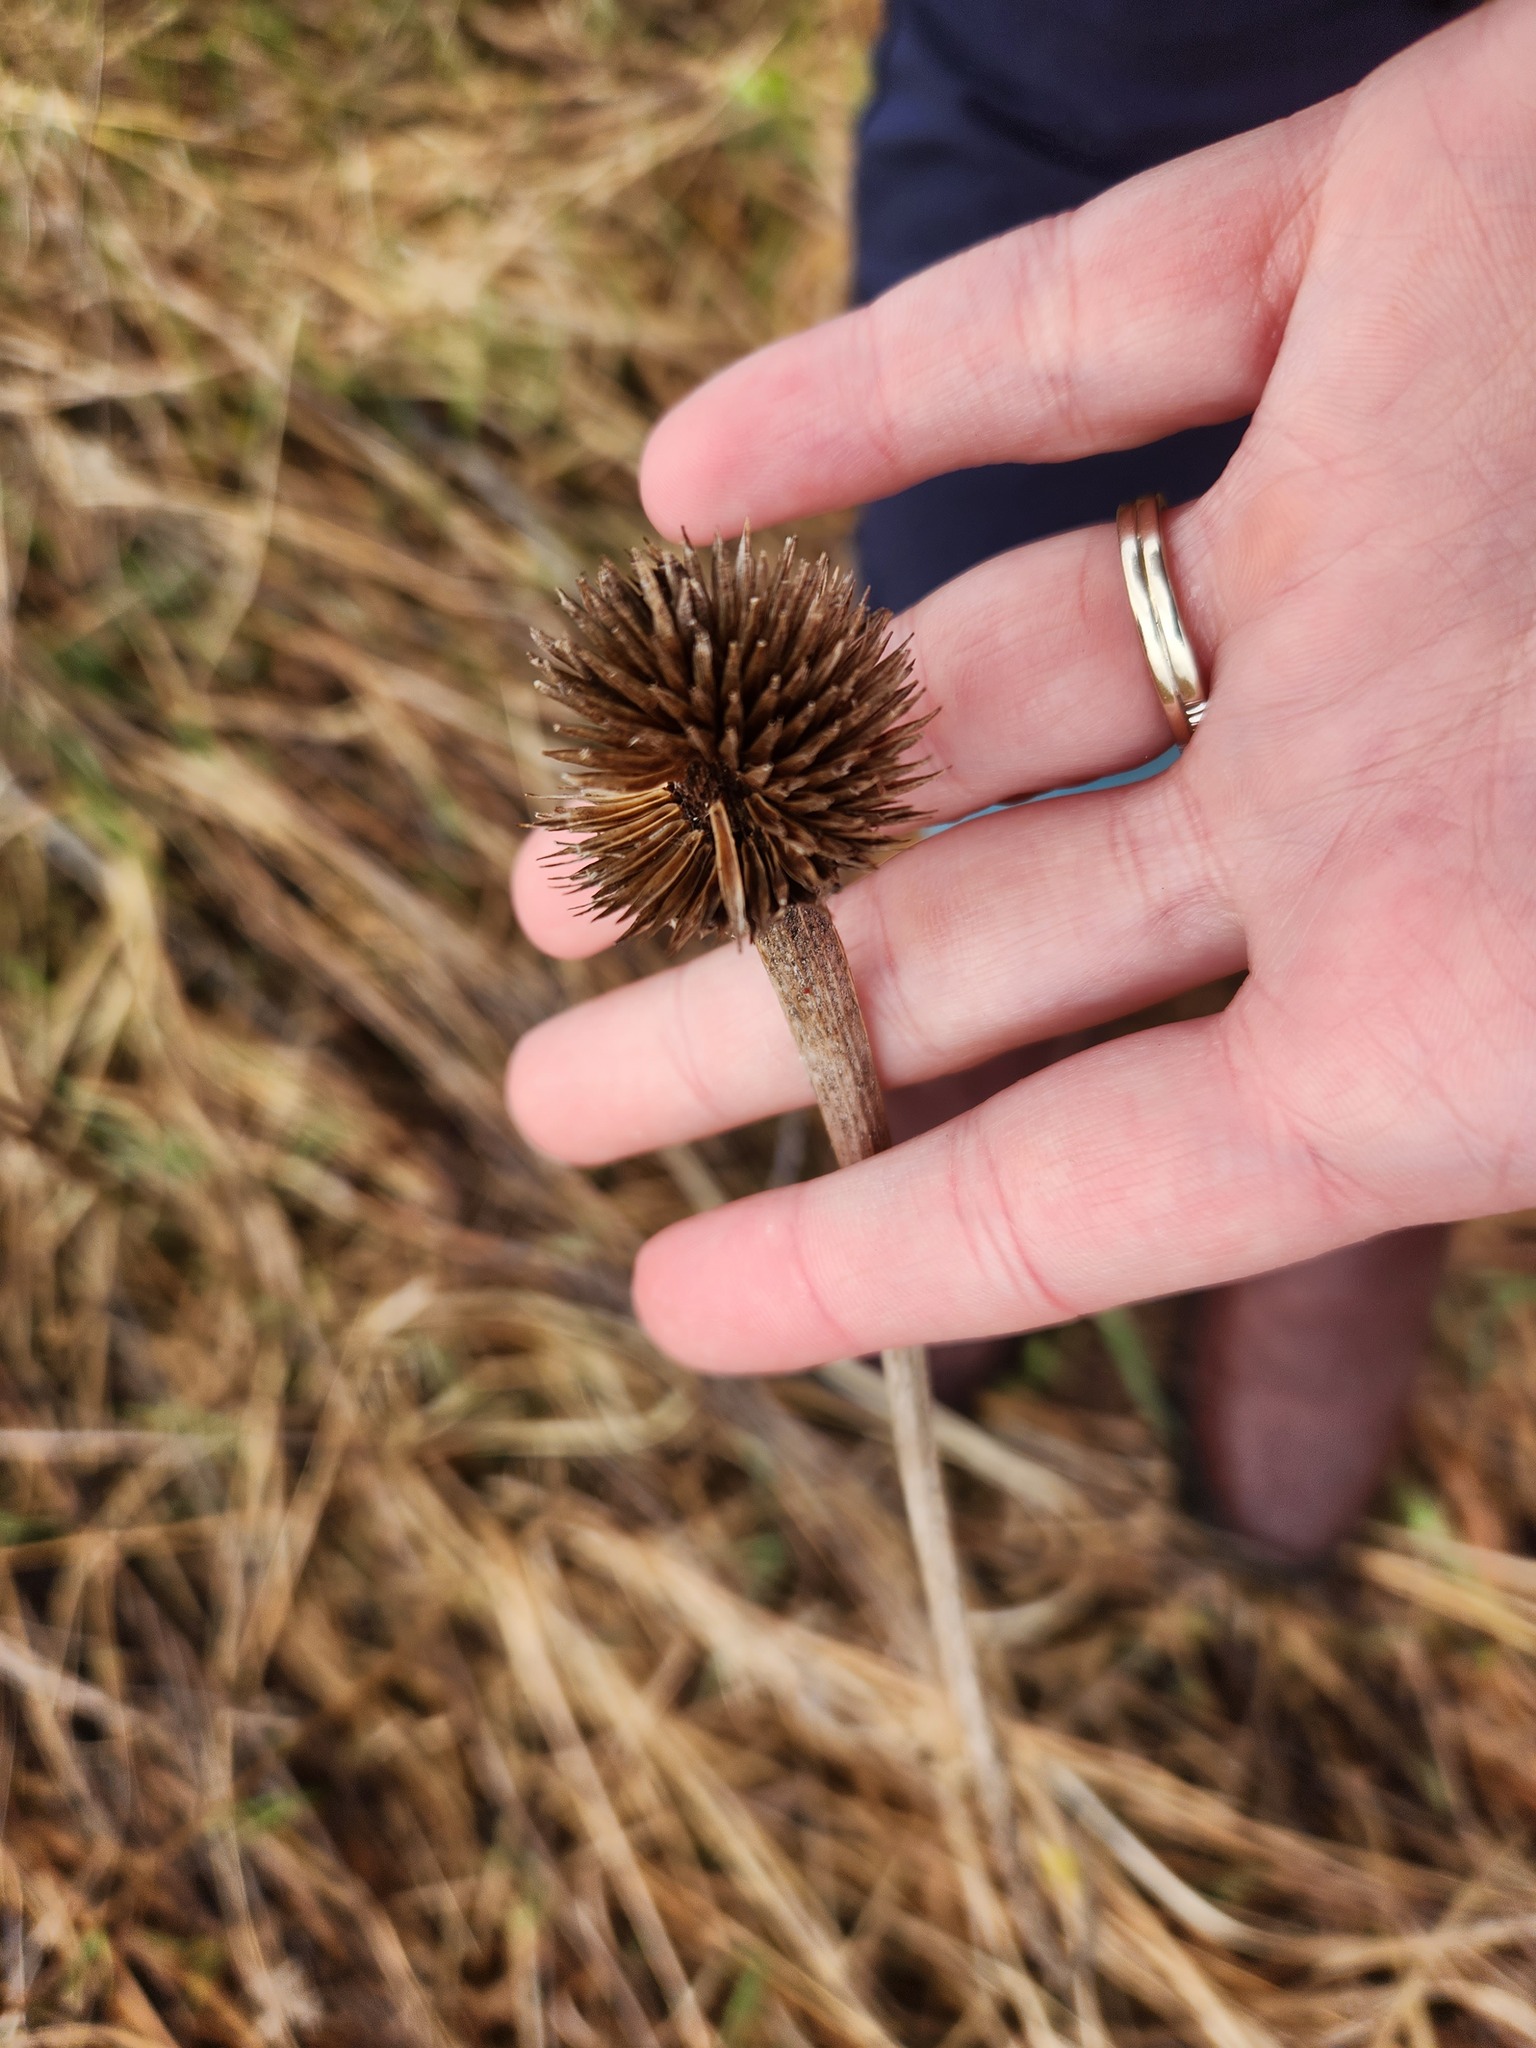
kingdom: Plantae
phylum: Tracheophyta
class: Magnoliopsida
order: Asterales
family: Asteraceae
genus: Echinacea
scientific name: Echinacea pallida
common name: Pale echinacea
